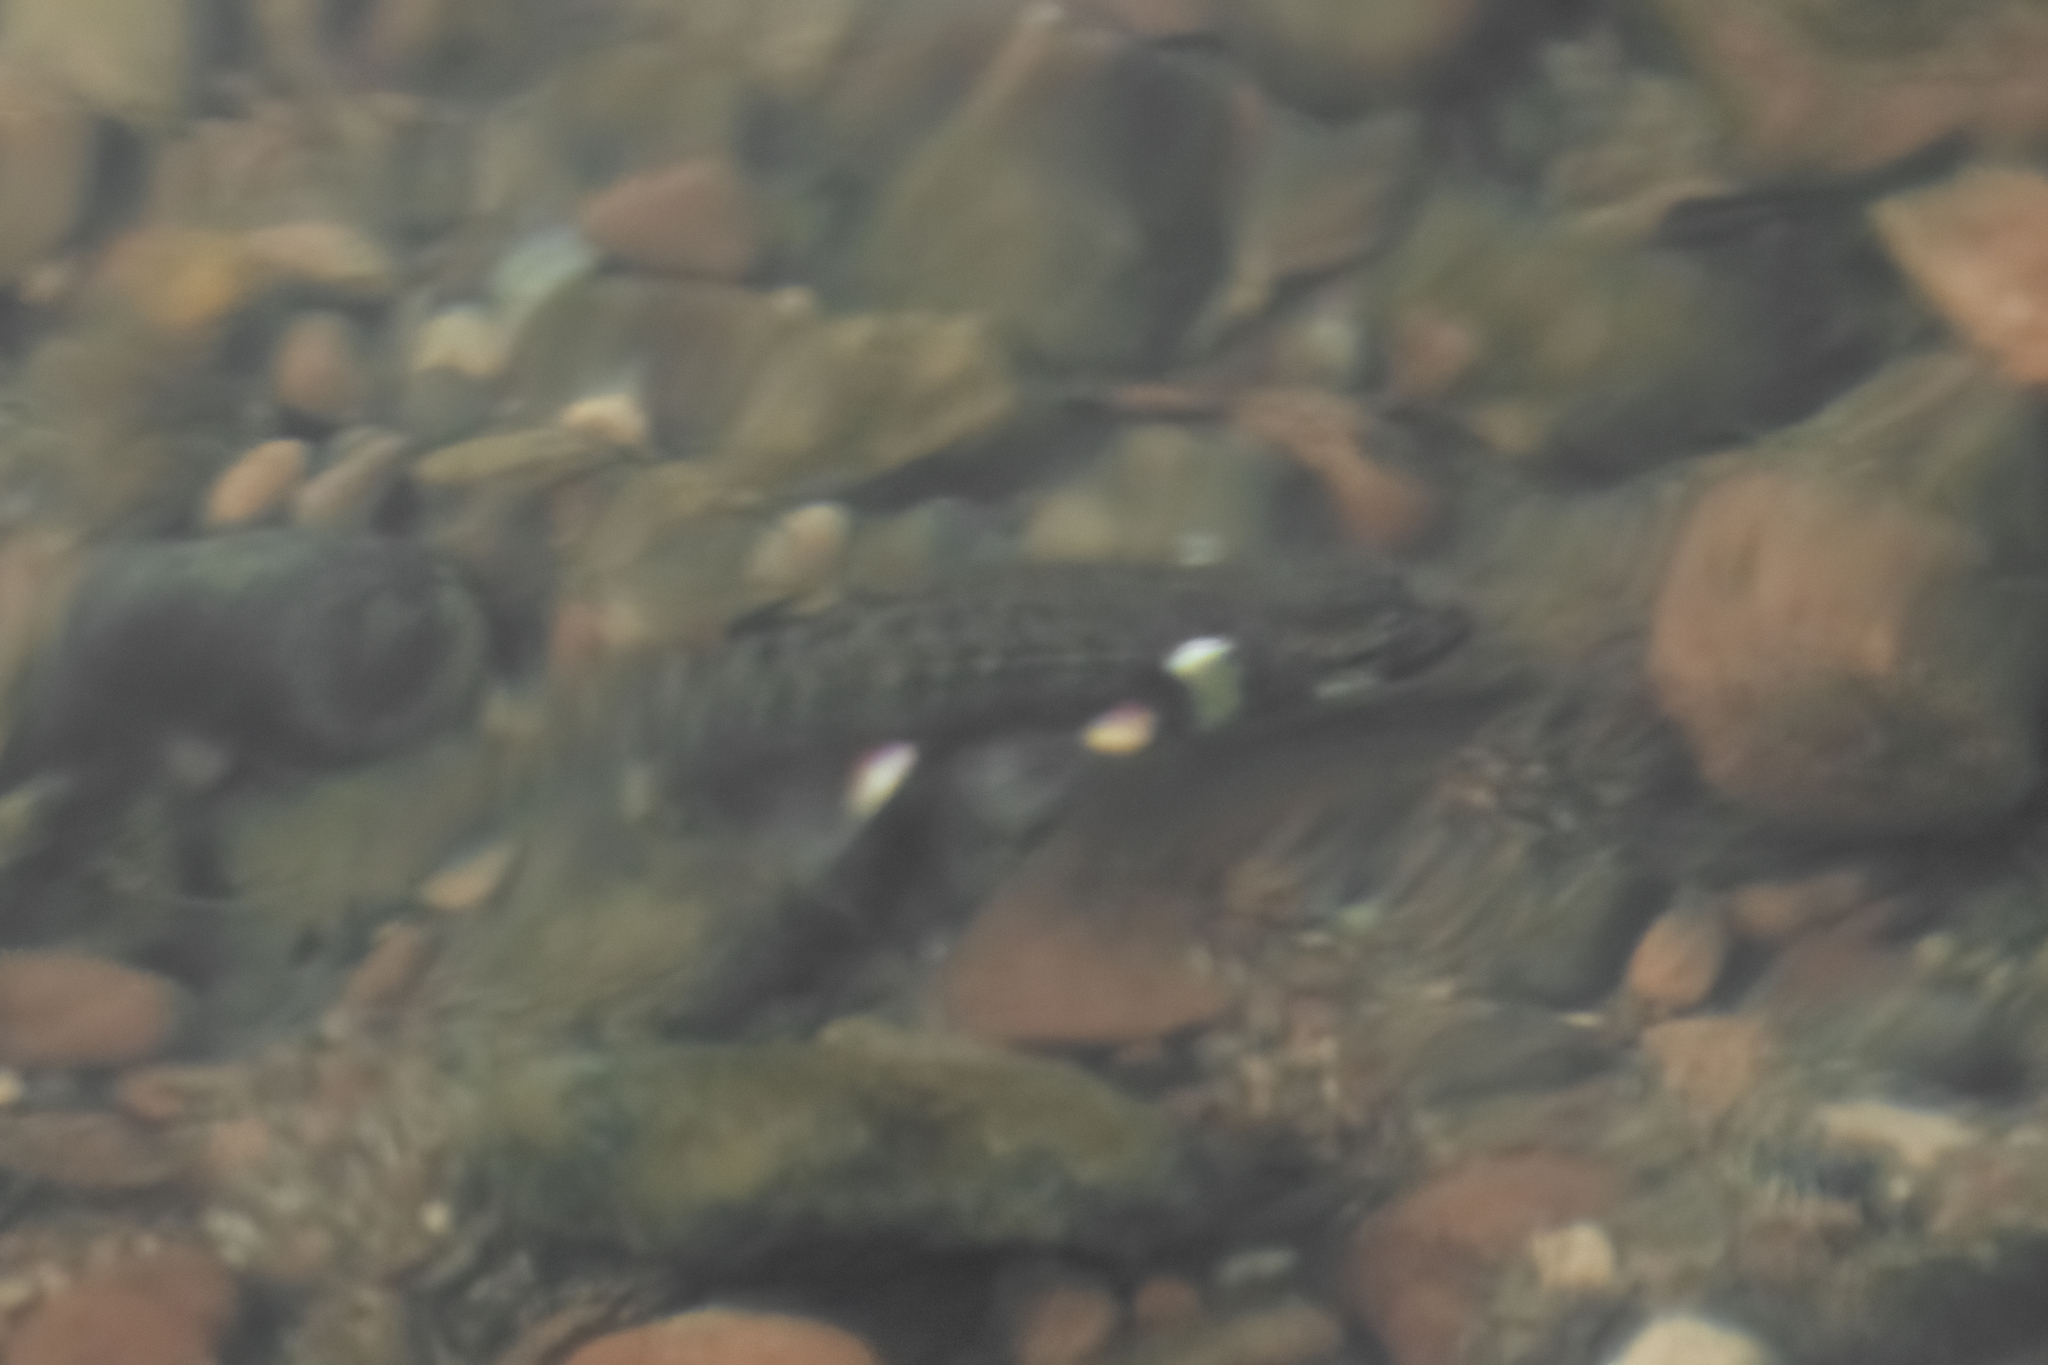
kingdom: Animalia
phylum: Chordata
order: Cypriniformes
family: Cyprinidae
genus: Phoxinus
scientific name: Phoxinus phoxinus
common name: Minnow
